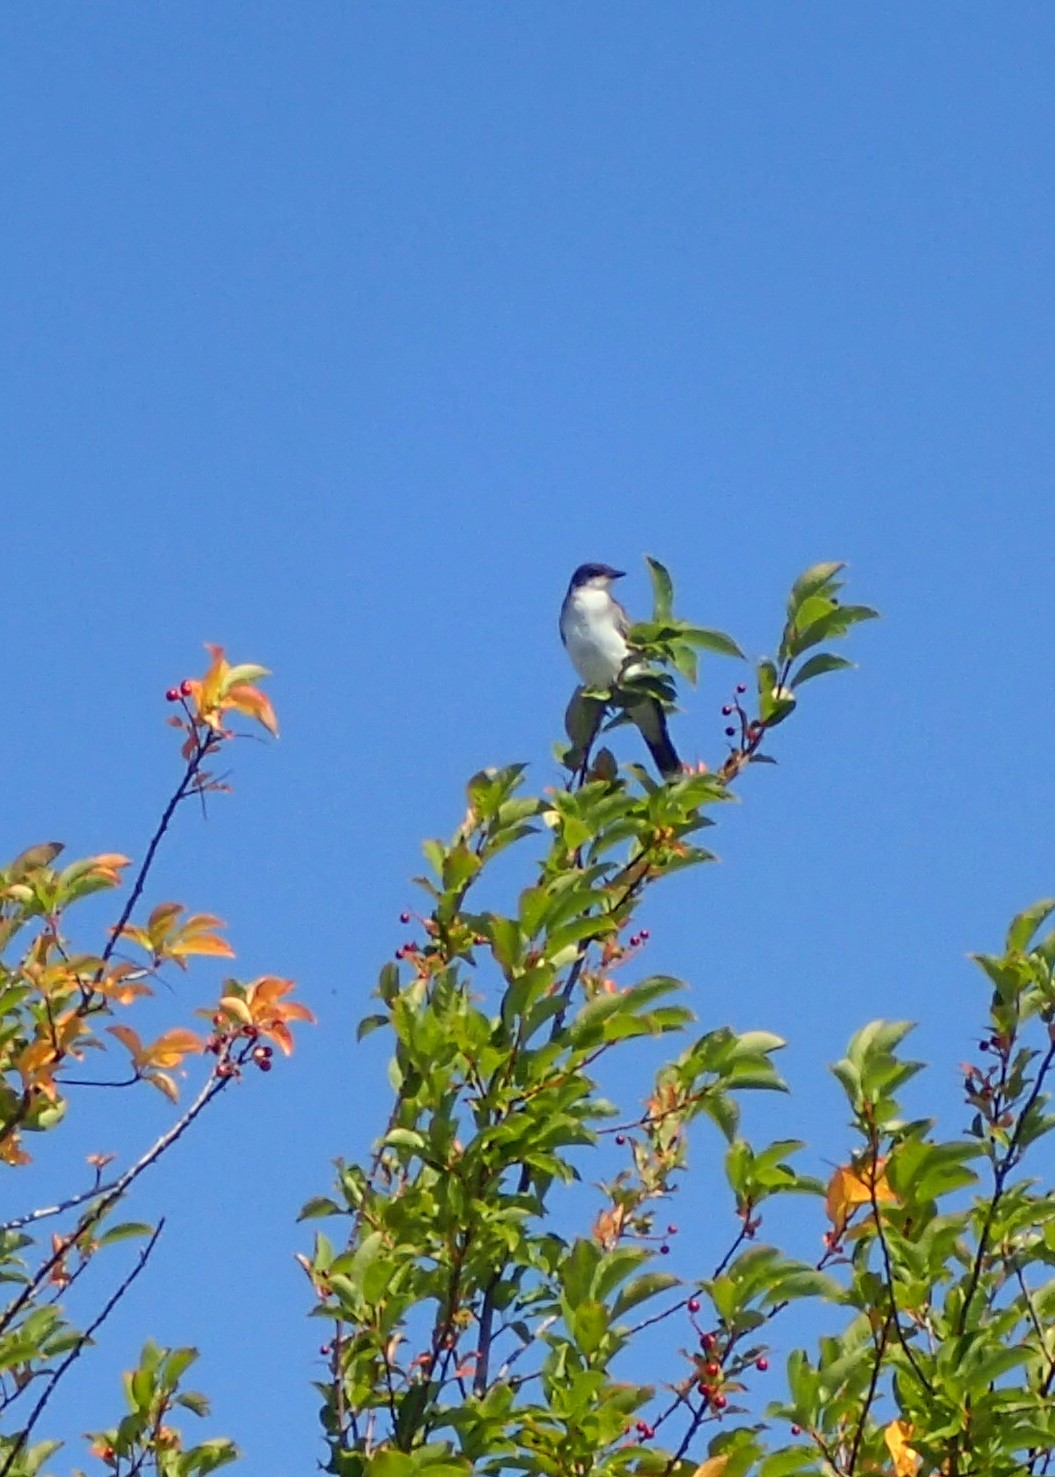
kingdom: Animalia
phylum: Chordata
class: Aves
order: Passeriformes
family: Tyrannidae
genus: Tyrannus
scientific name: Tyrannus tyrannus
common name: Eastern kingbird
